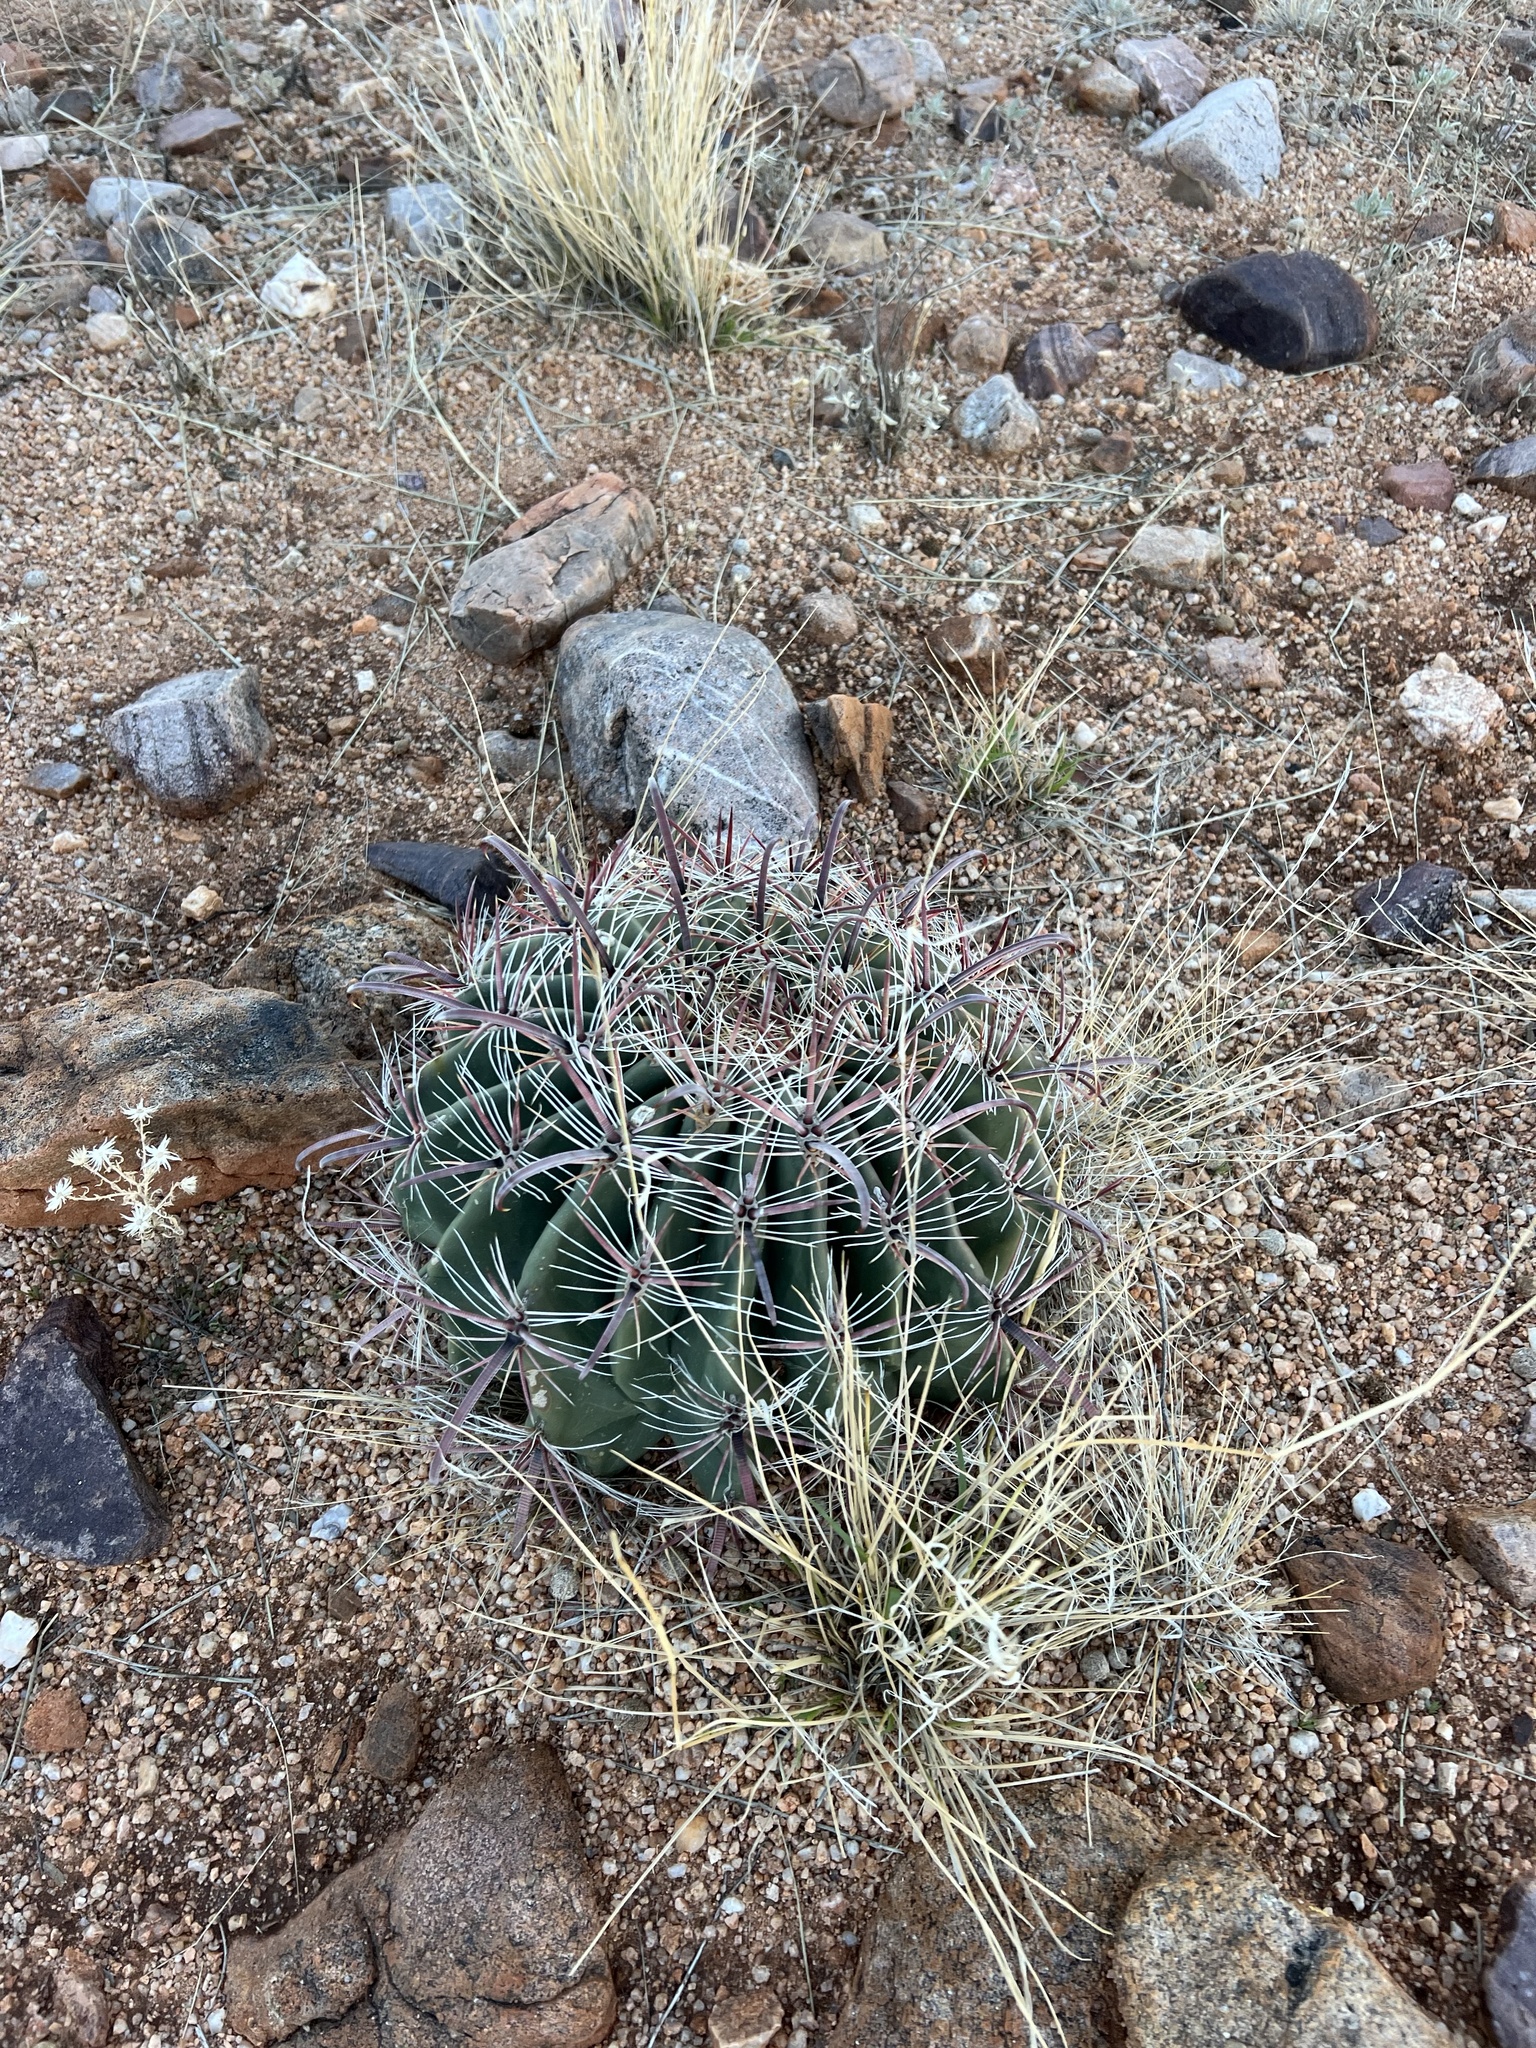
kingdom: Plantae
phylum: Tracheophyta
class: Magnoliopsida
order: Caryophyllales
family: Cactaceae
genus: Ferocactus
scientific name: Ferocactus wislizeni
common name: Candy barrel cactus
